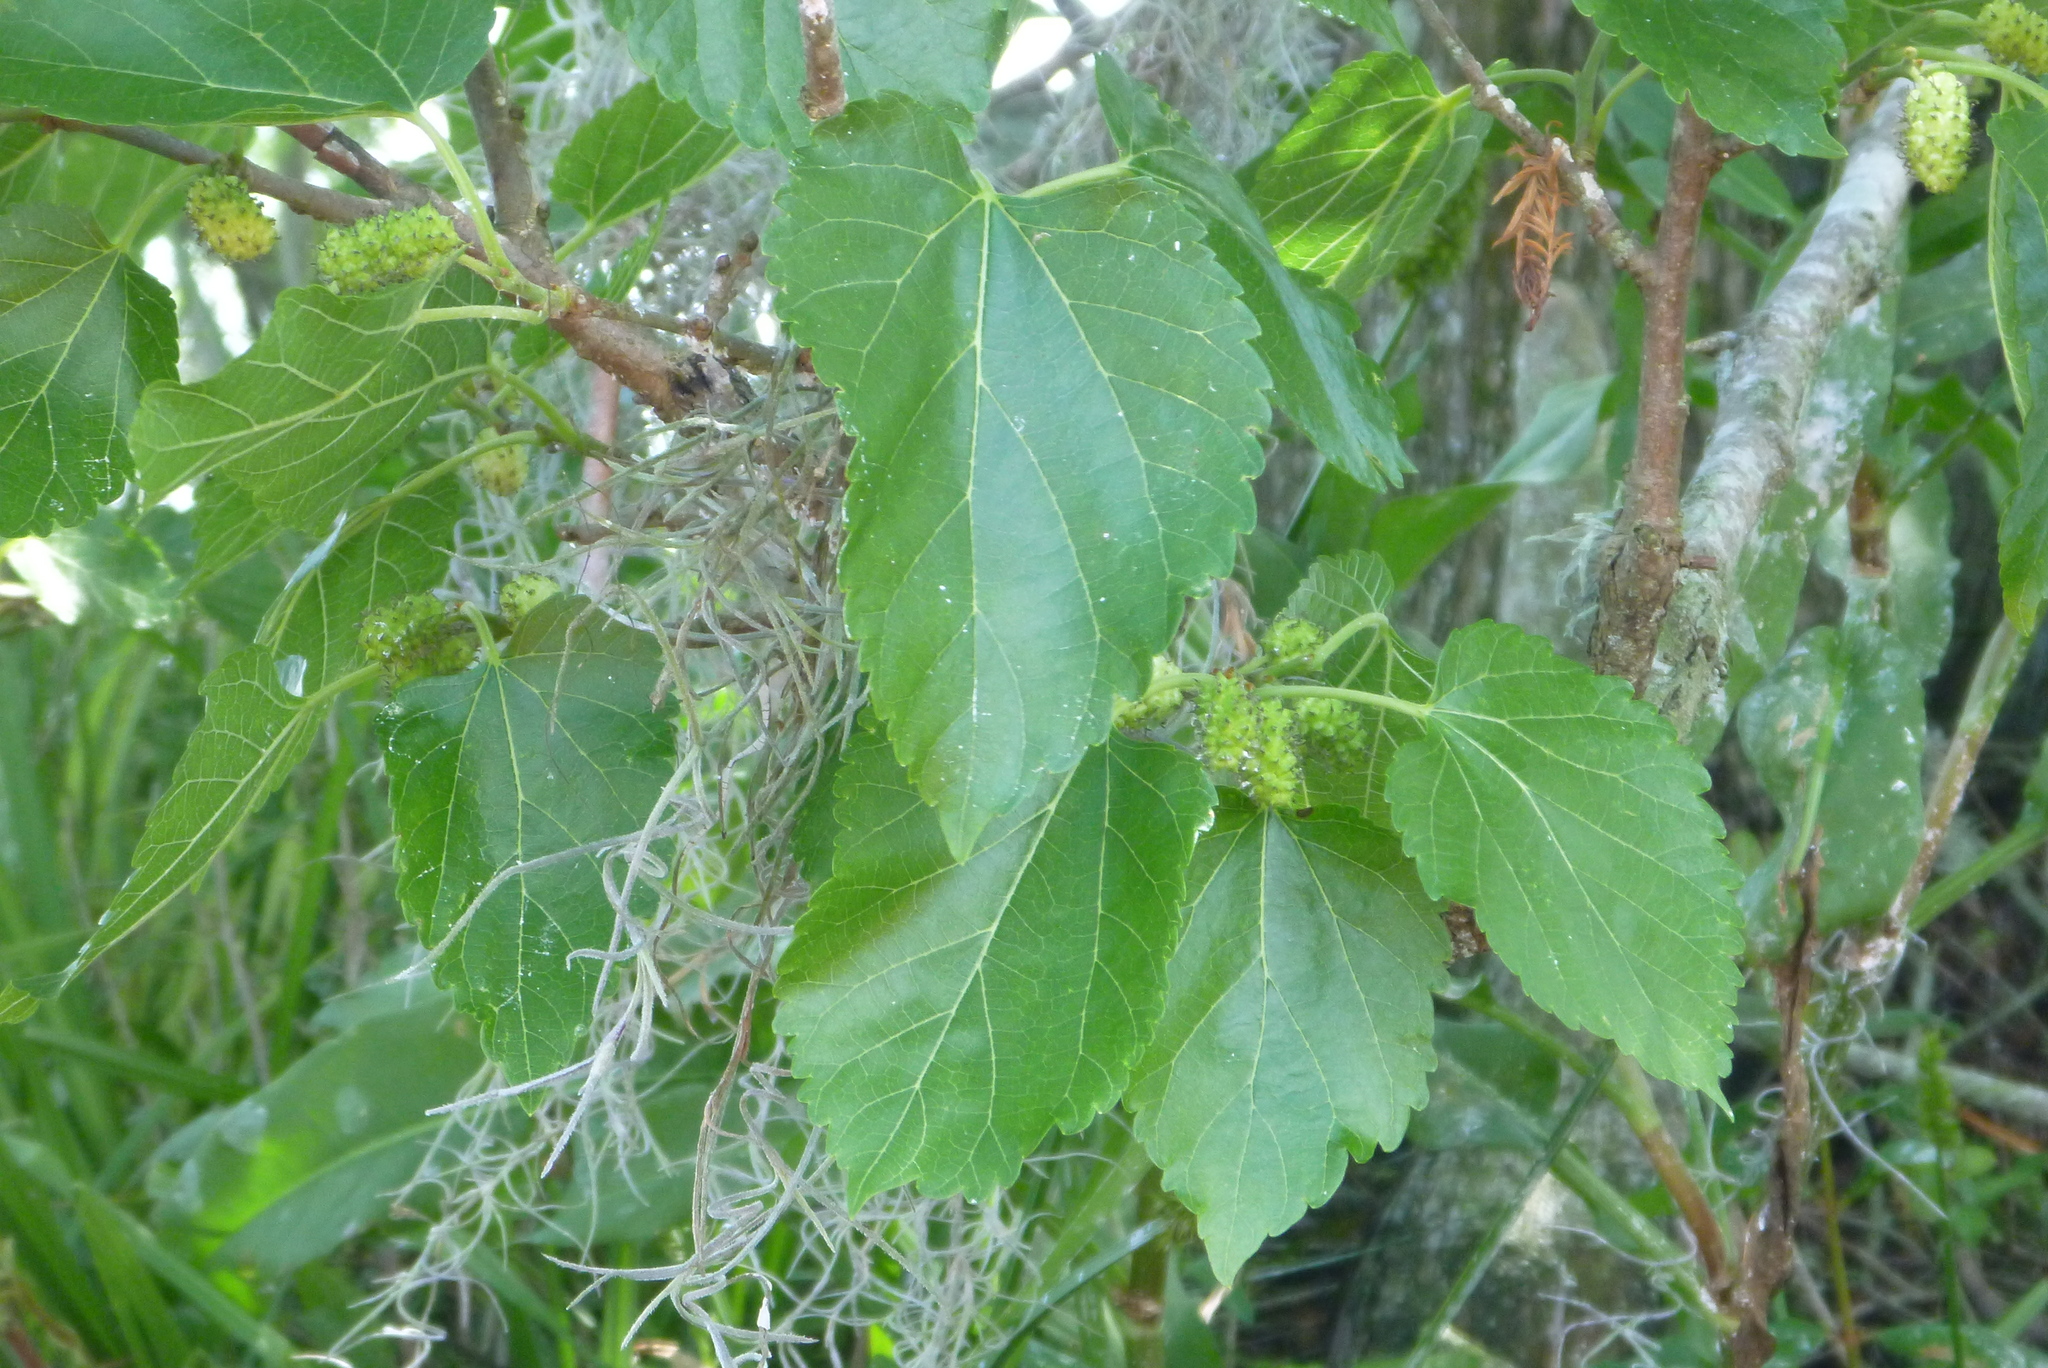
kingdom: Plantae
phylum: Tracheophyta
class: Magnoliopsida
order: Rosales
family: Moraceae
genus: Morus
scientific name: Morus rubra
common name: Red mulberry
